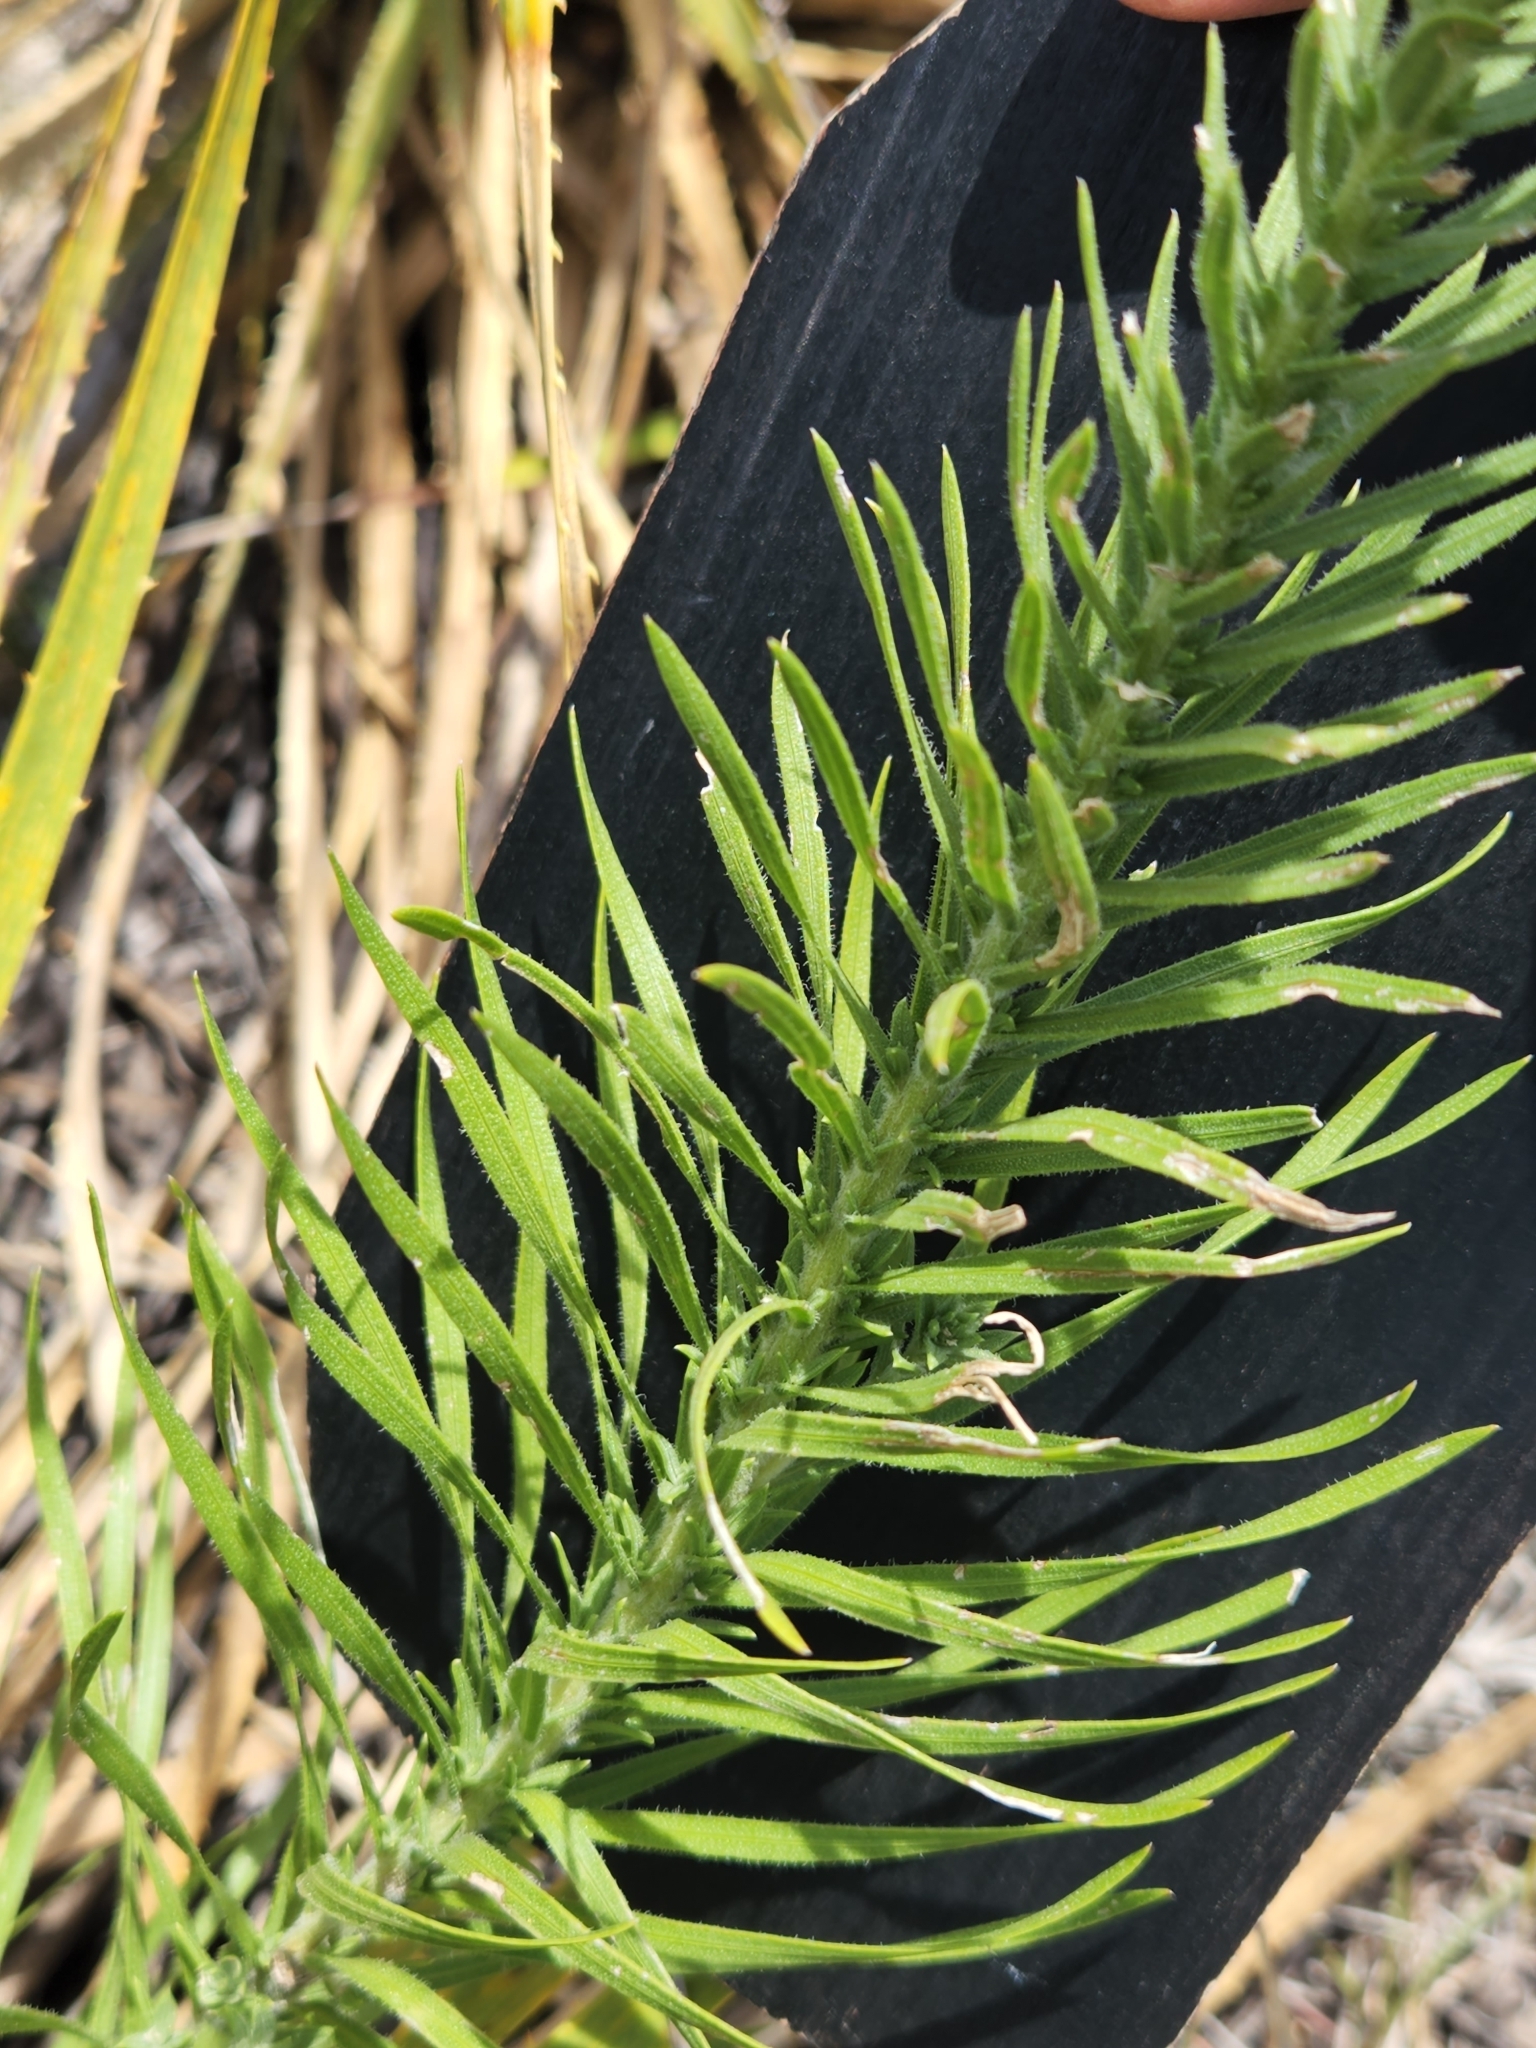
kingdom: Plantae
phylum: Tracheophyta
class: Magnoliopsida
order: Asterales
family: Asteraceae
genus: Liatris
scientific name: Liatris punctata
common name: Dotted gayfeather
